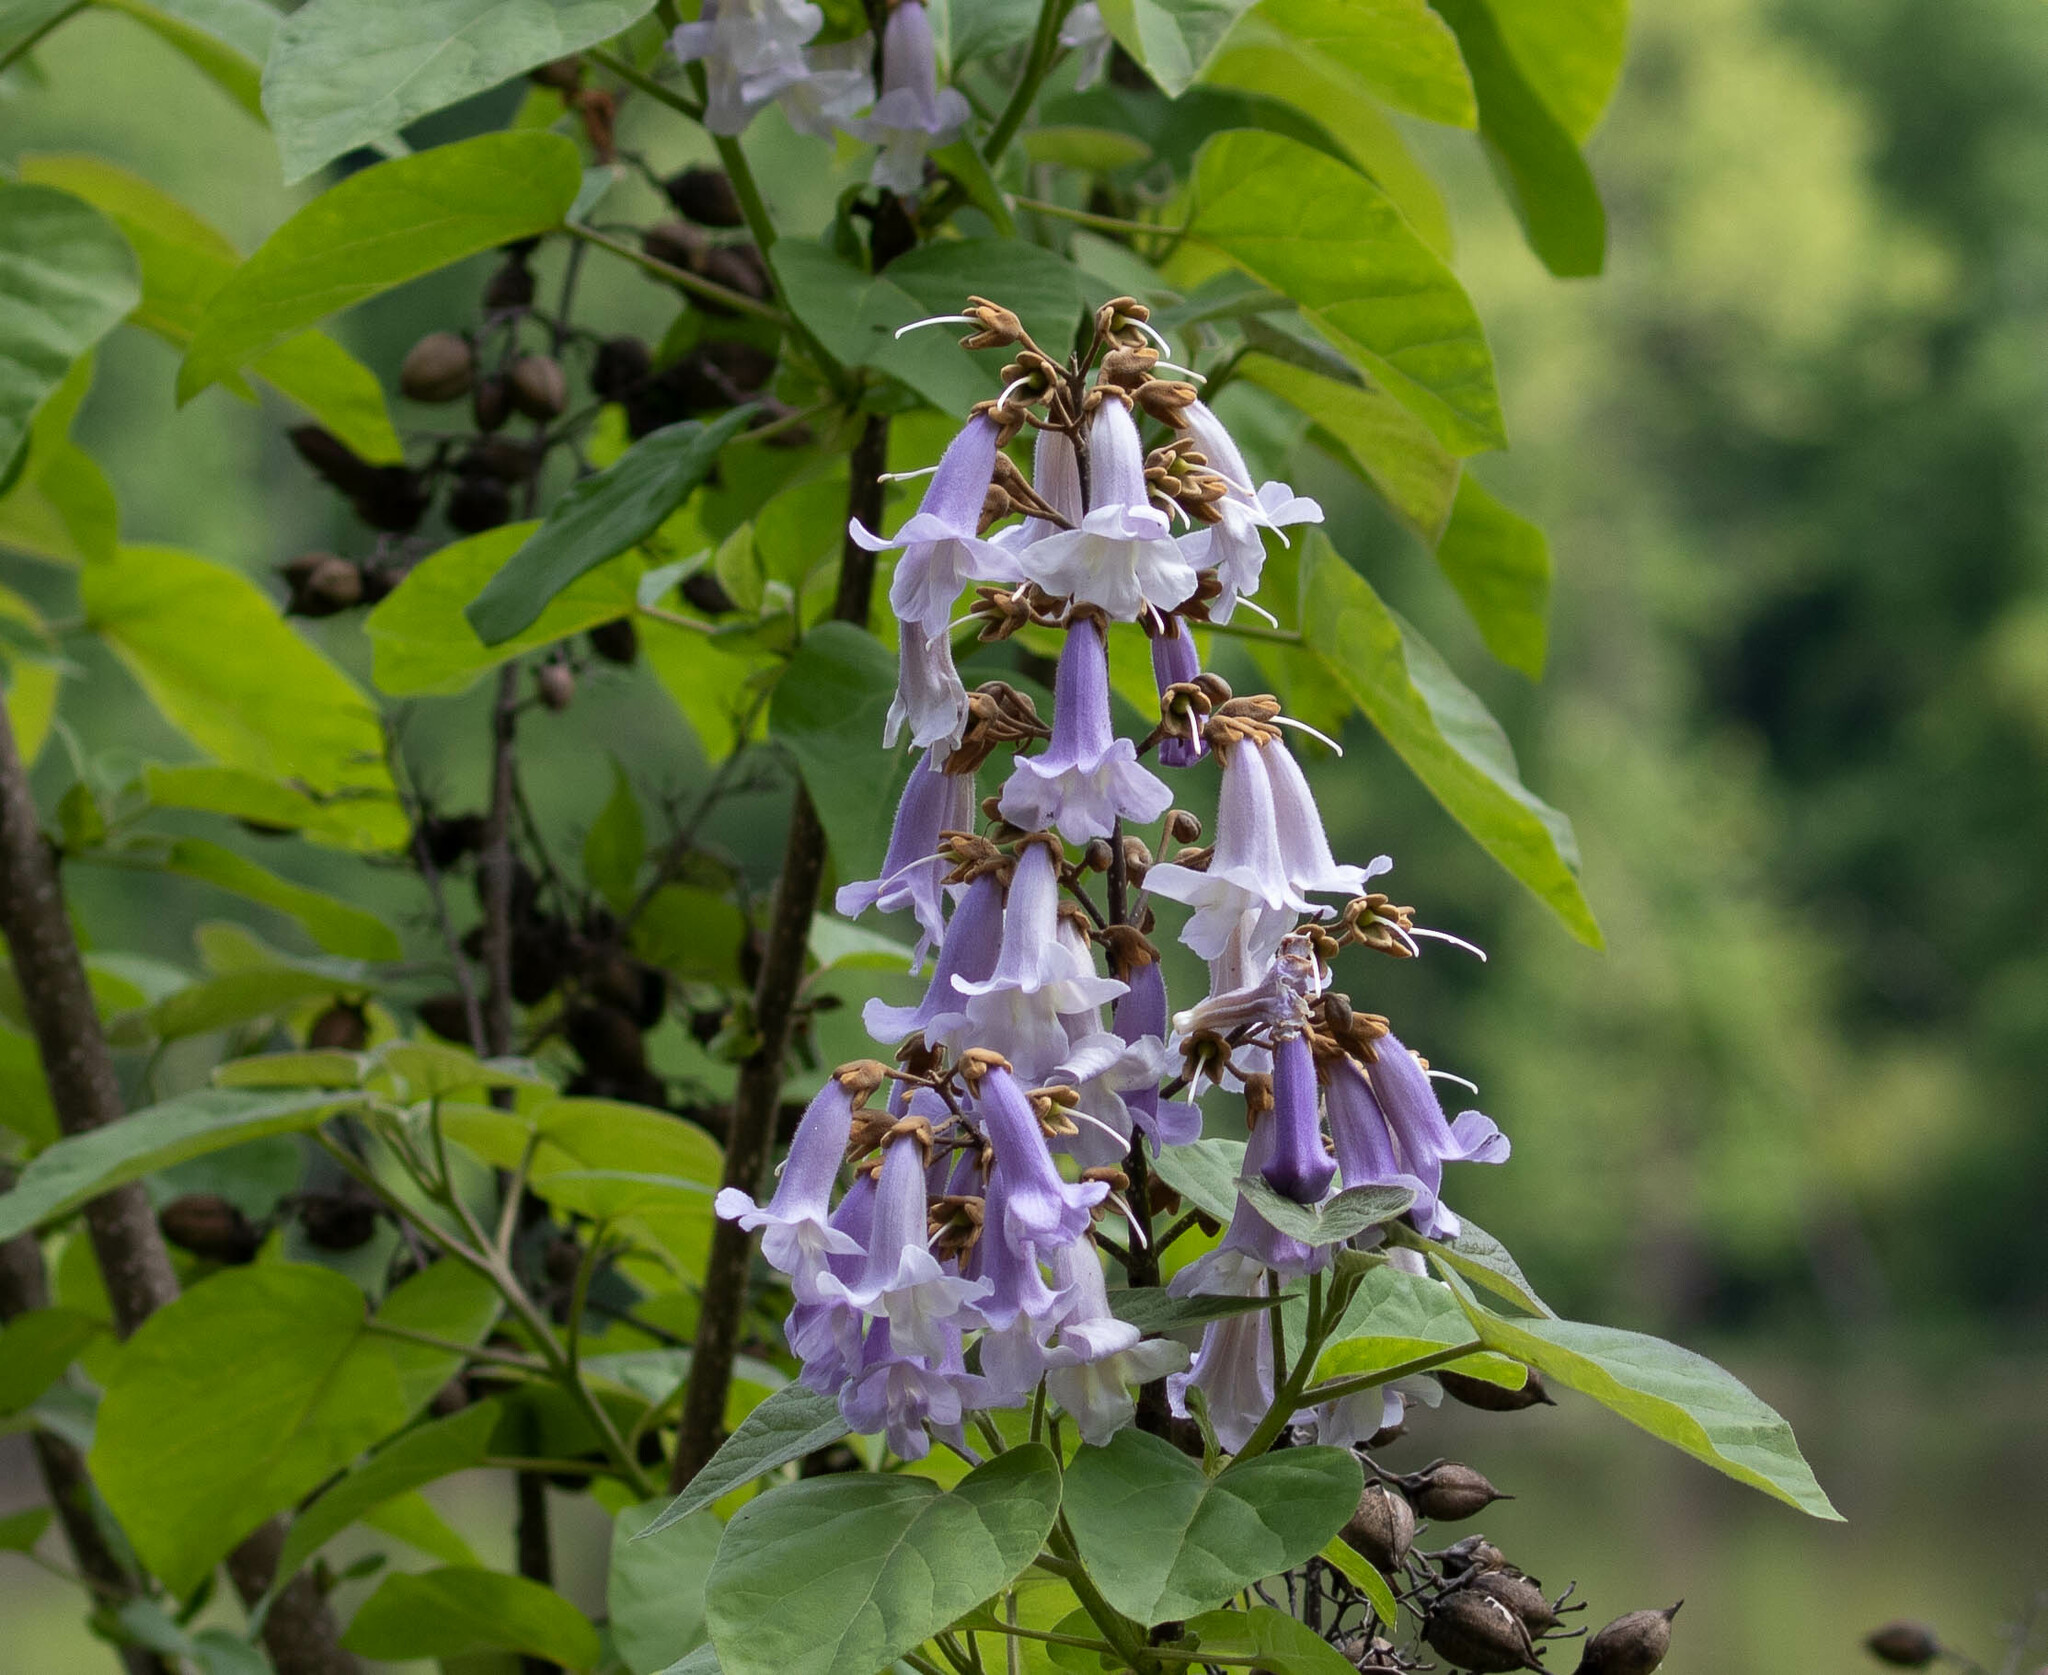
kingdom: Plantae
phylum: Tracheophyta
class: Magnoliopsida
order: Lamiales
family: Paulowniaceae
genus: Paulownia
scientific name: Paulownia tomentosa
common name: Foxglove-tree
